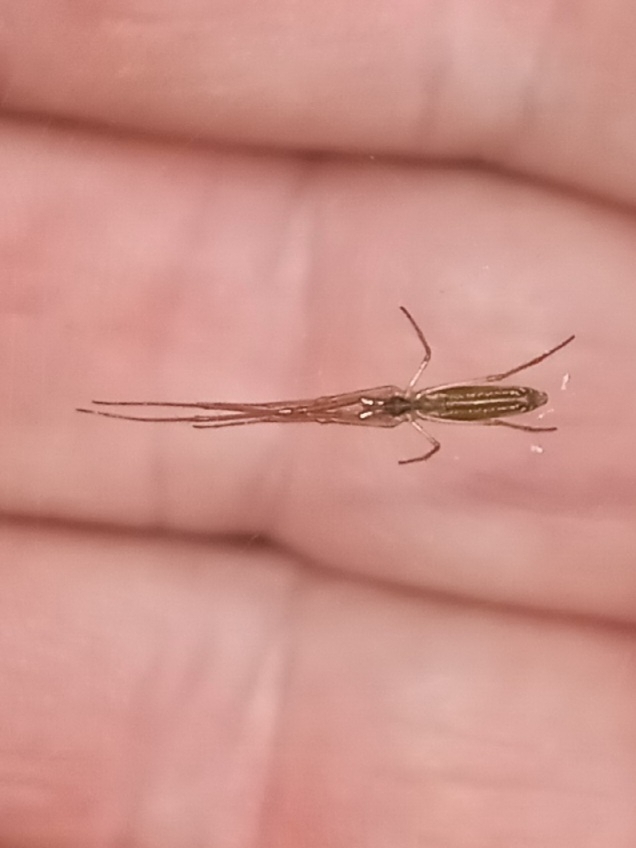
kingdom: Animalia
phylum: Arthropoda
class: Arachnida
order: Araneae
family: Tetragnathidae
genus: Tetragnatha
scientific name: Tetragnatha laboriosa
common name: Longjawed orb weavers
